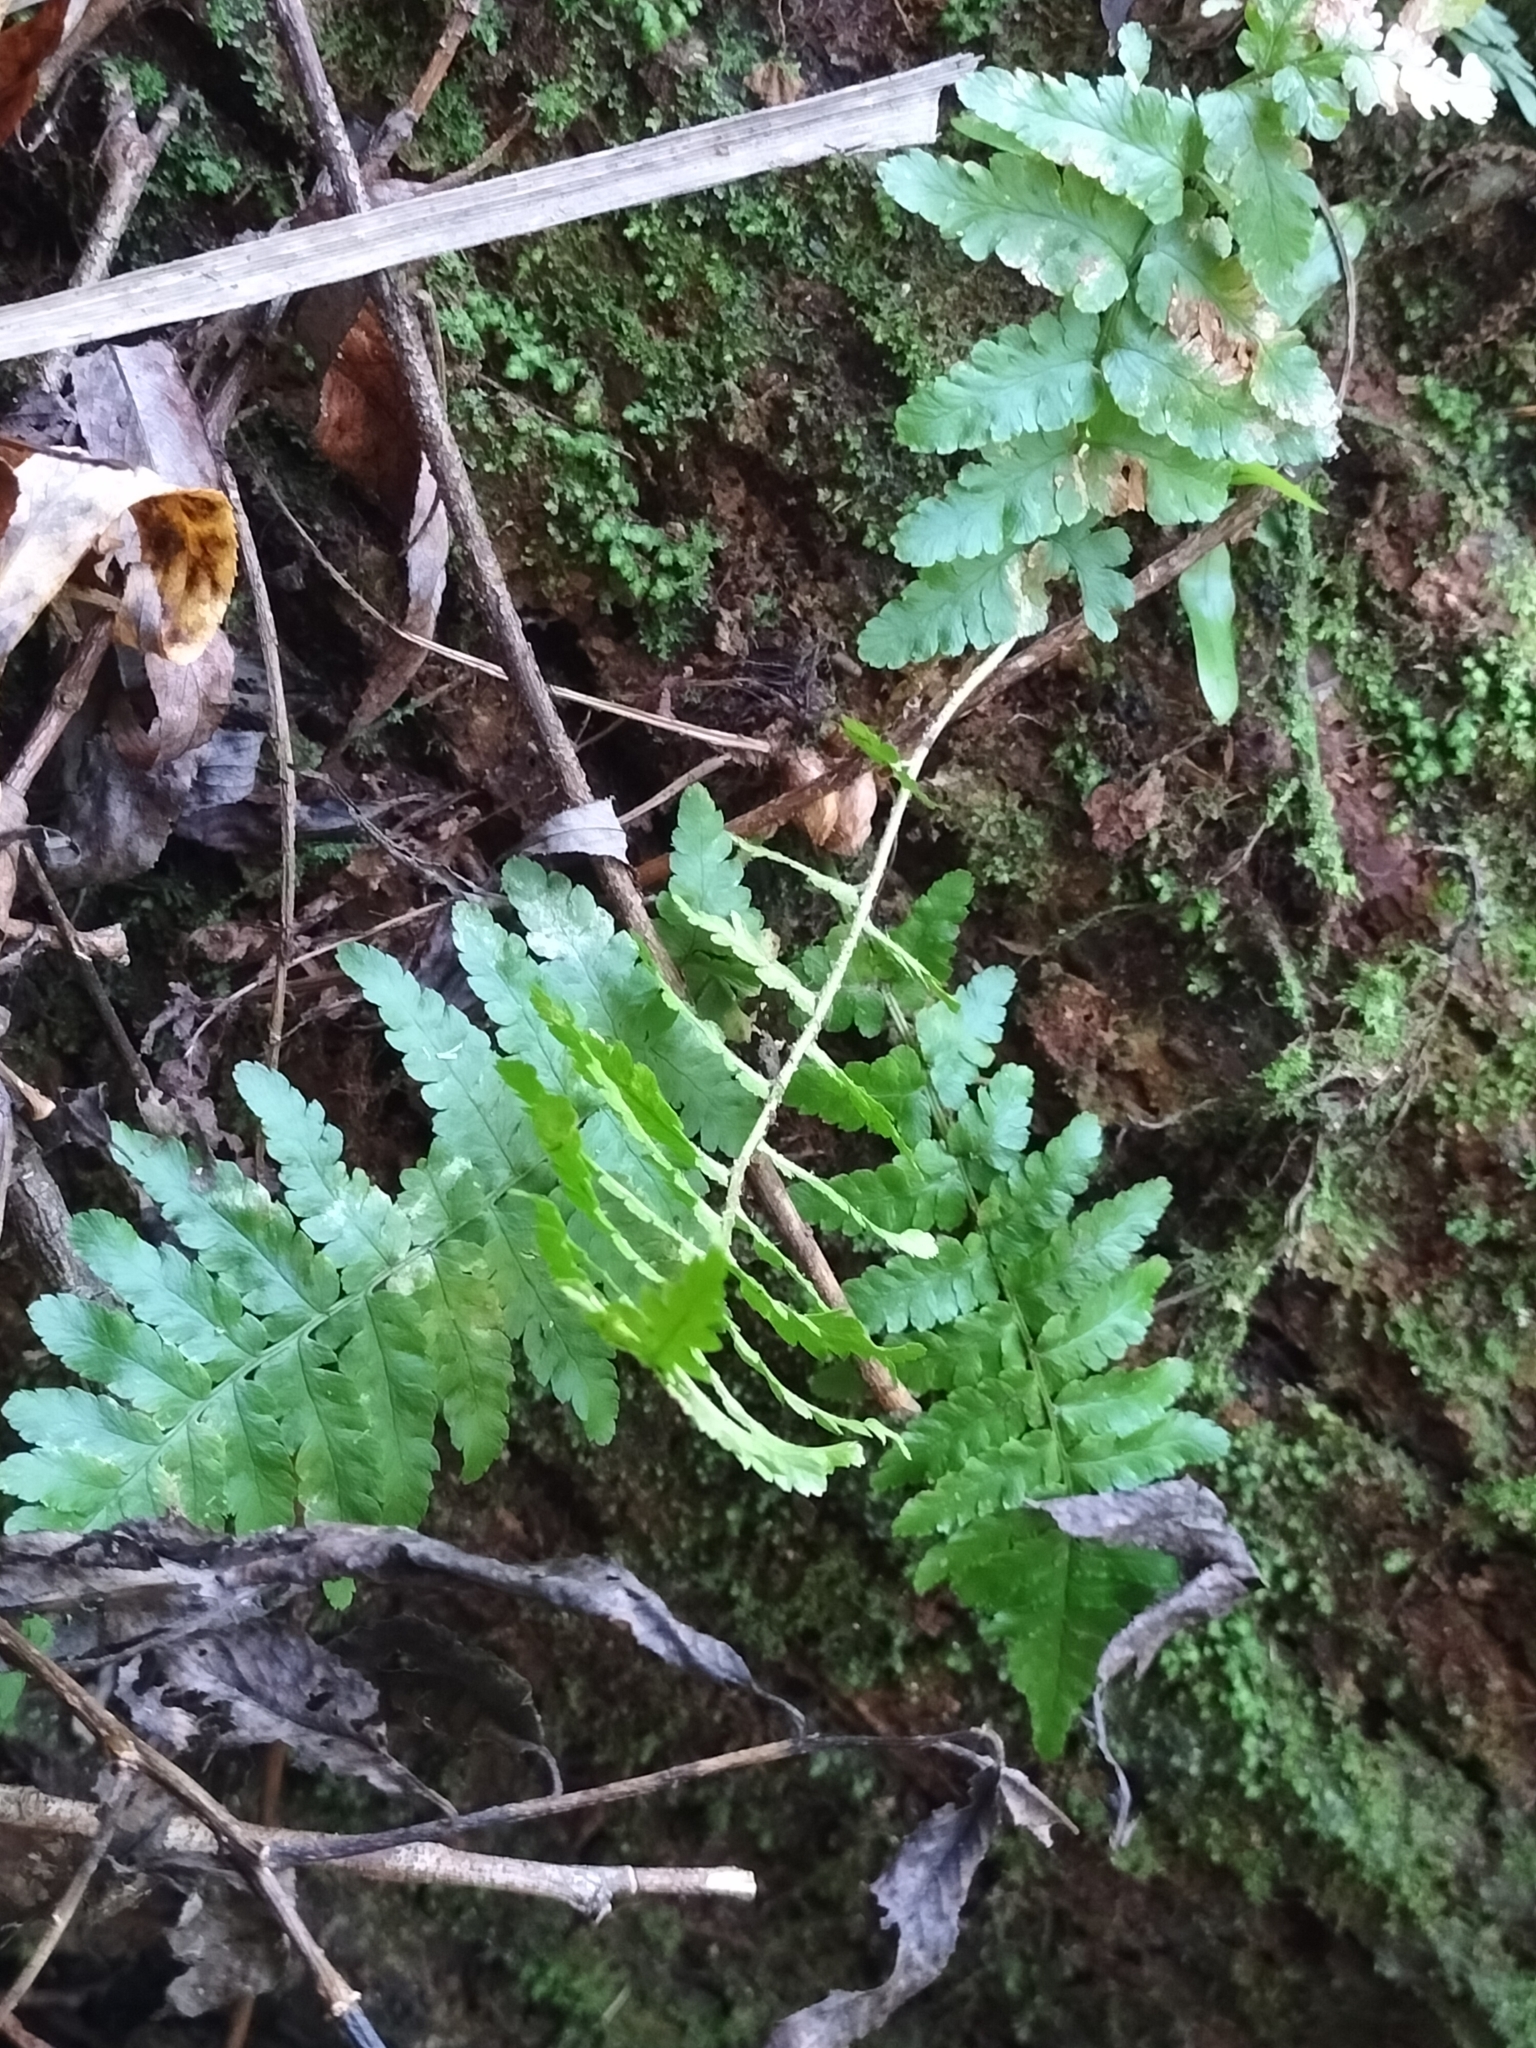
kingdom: Plantae
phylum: Tracheophyta
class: Polypodiopsida
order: Polypodiales
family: Dryopteridaceae
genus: Dryopteris
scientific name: Dryopteris filix-mas
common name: Male fern
